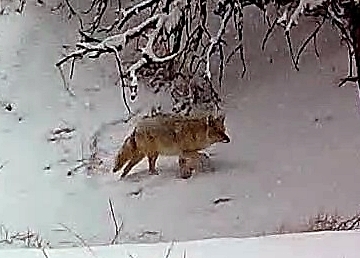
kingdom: Animalia
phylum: Chordata
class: Mammalia
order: Carnivora
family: Canidae
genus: Canis
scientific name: Canis latrans
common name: Coyote
